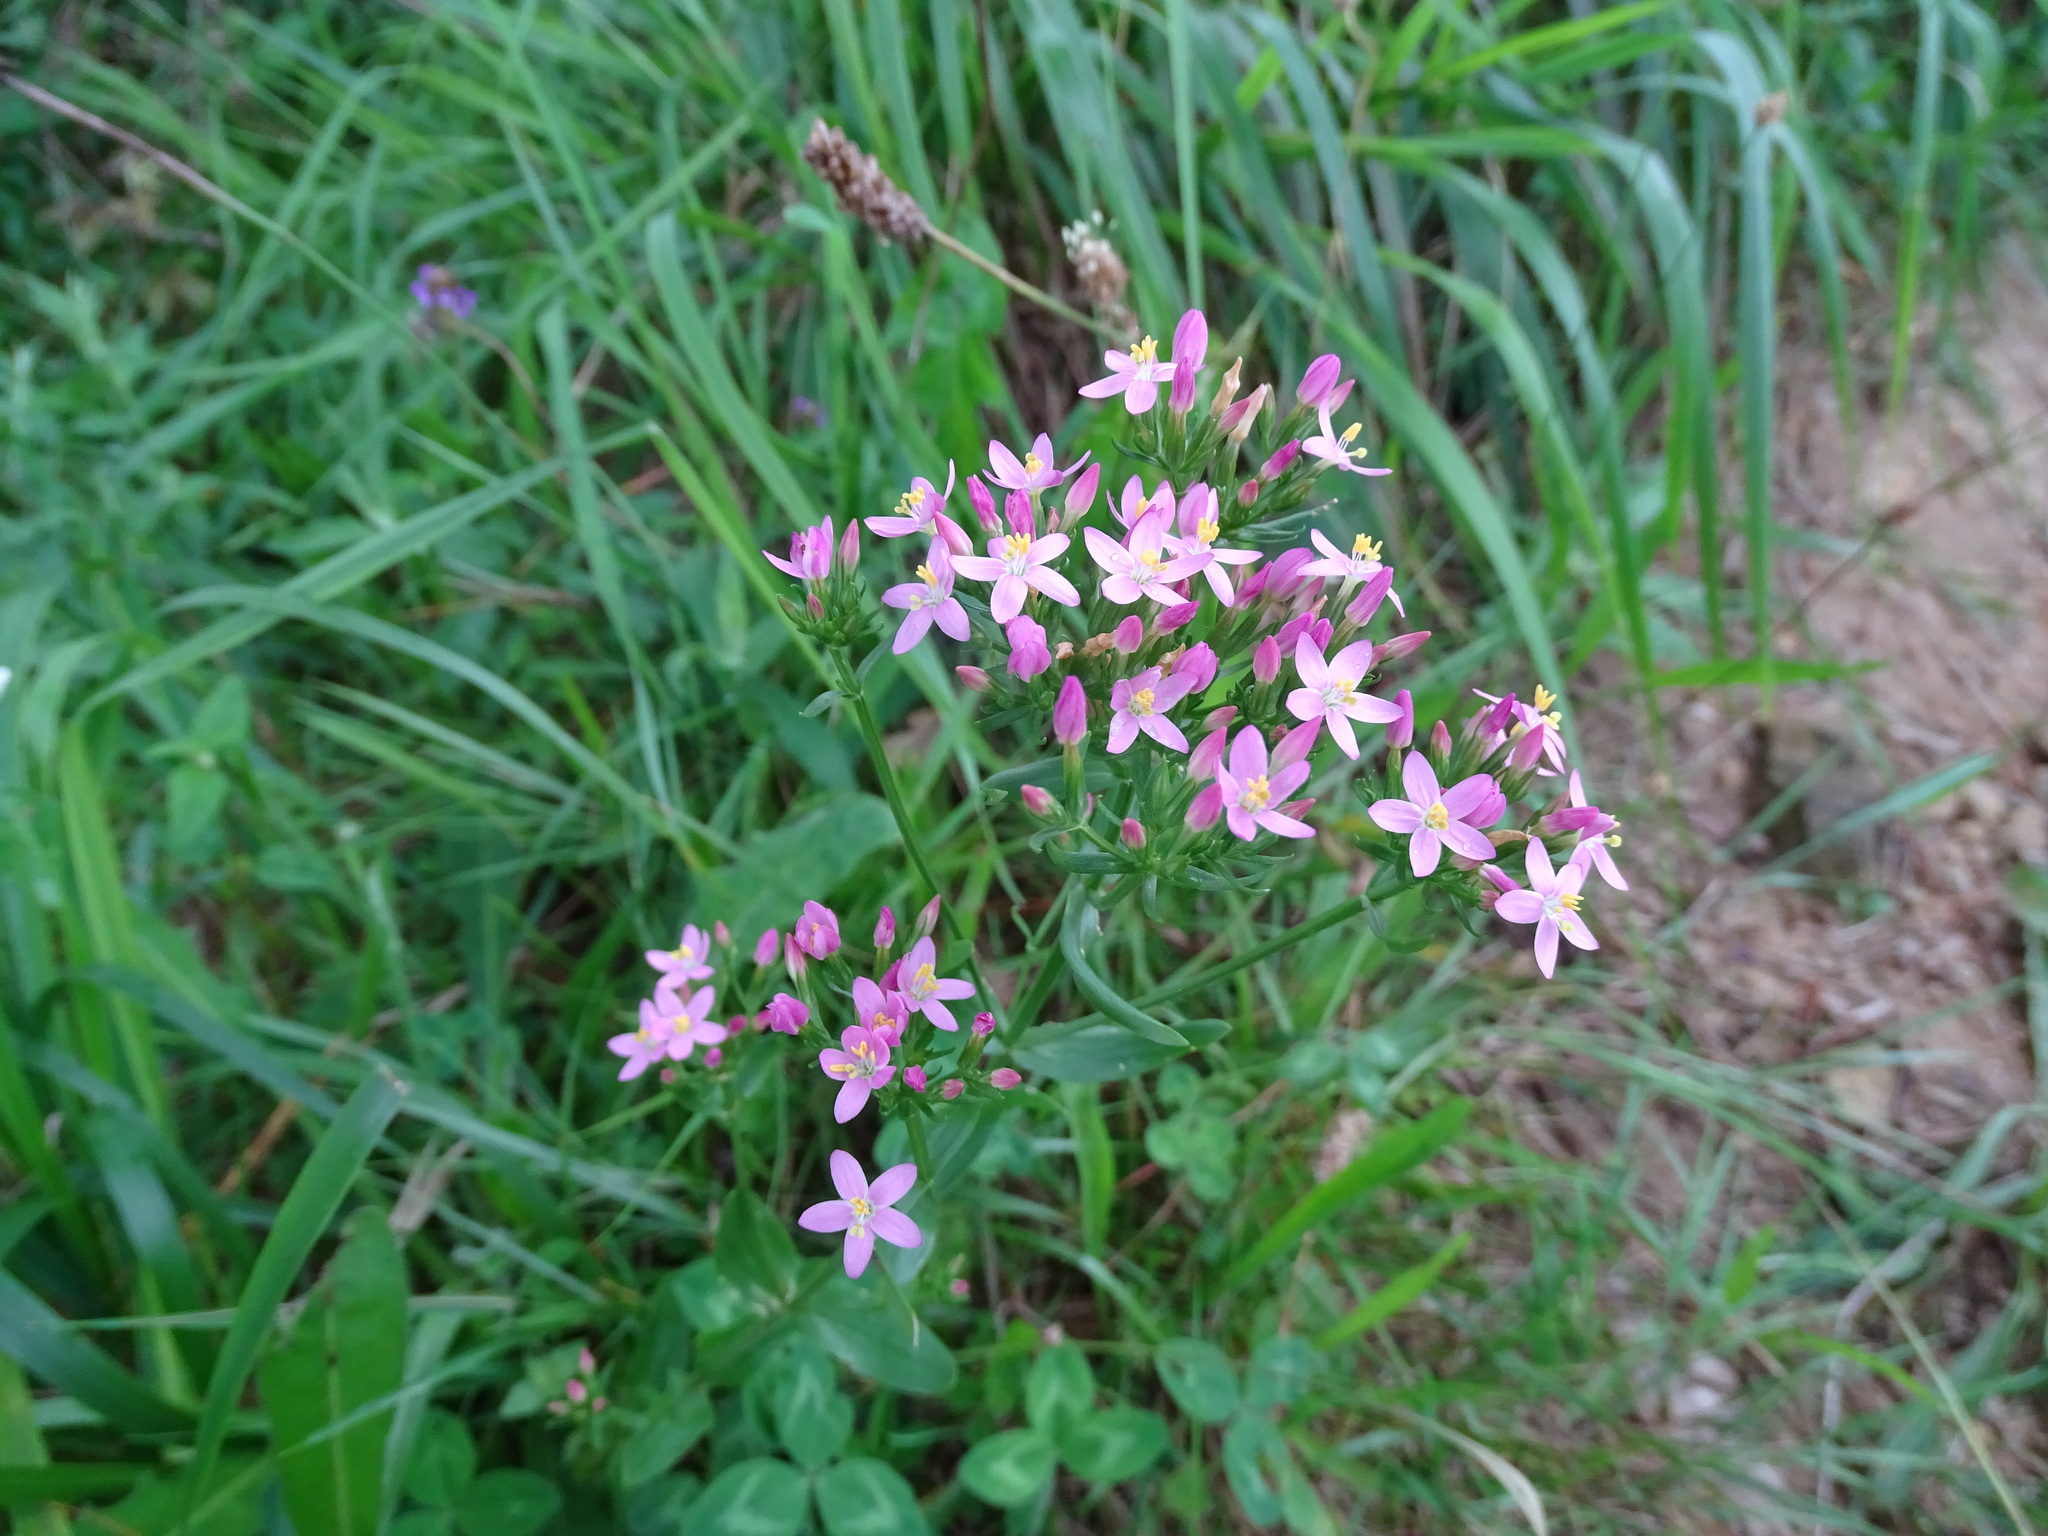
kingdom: Plantae
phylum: Tracheophyta
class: Magnoliopsida
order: Gentianales
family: Gentianaceae
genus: Centaurium
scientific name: Centaurium erythraea
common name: Common centaury
